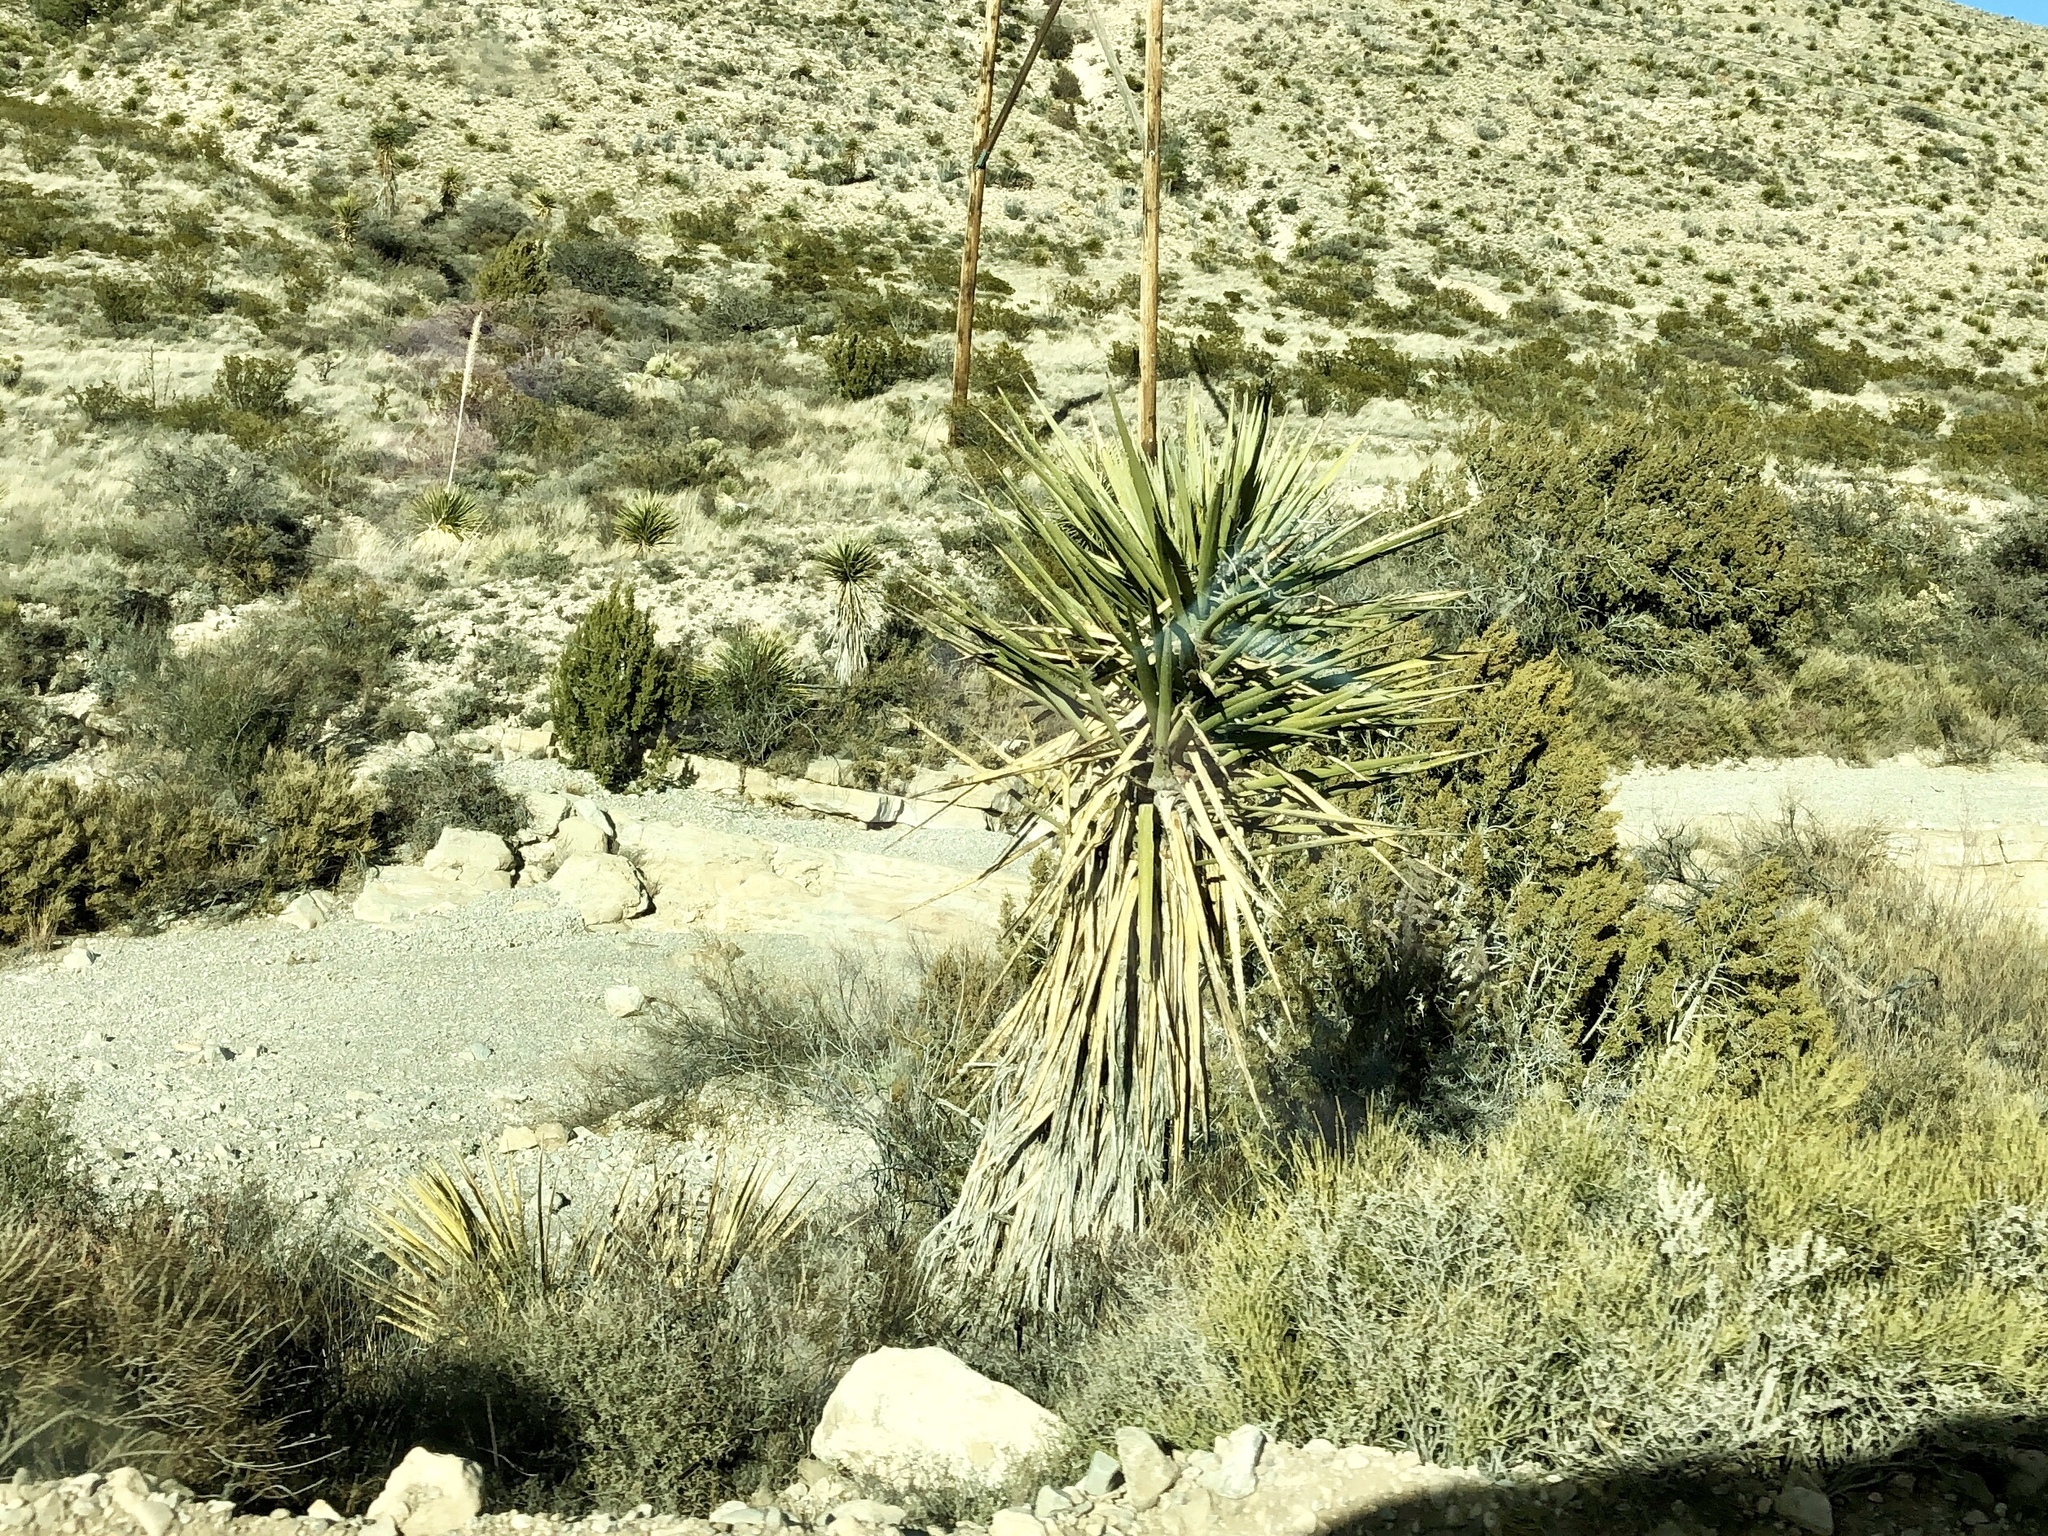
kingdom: Plantae
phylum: Tracheophyta
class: Liliopsida
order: Asparagales
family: Asparagaceae
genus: Yucca
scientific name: Yucca elata
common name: Palmella
